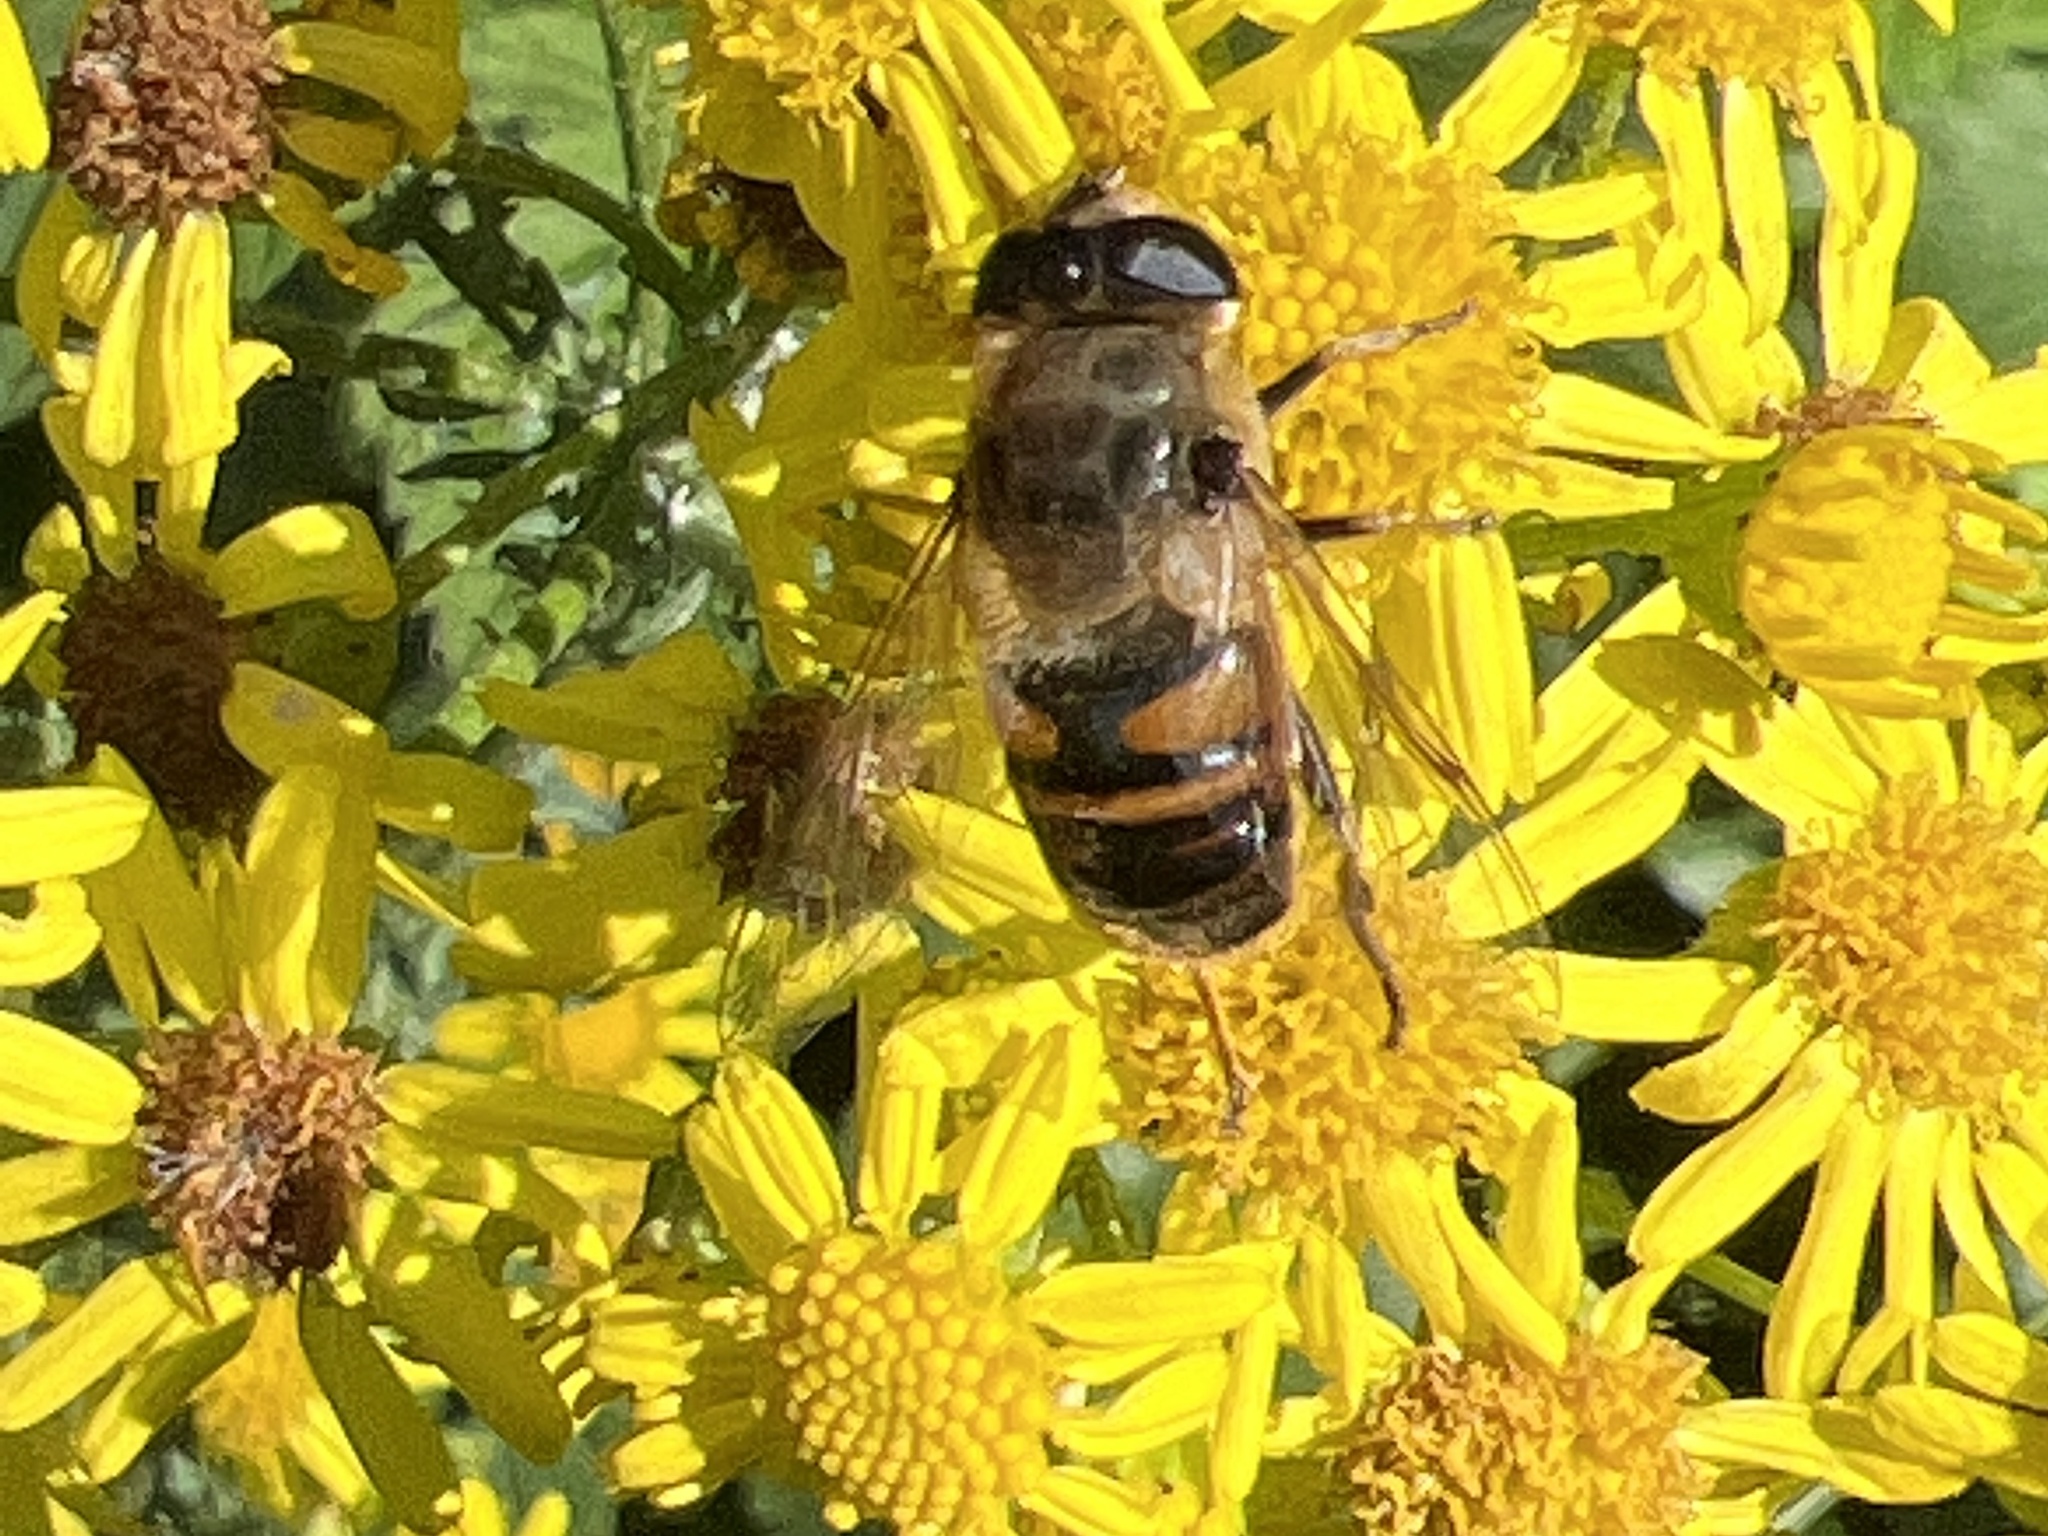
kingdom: Animalia
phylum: Arthropoda
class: Insecta
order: Diptera
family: Syrphidae
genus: Eristalis
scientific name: Eristalis tenax
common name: Drone fly
